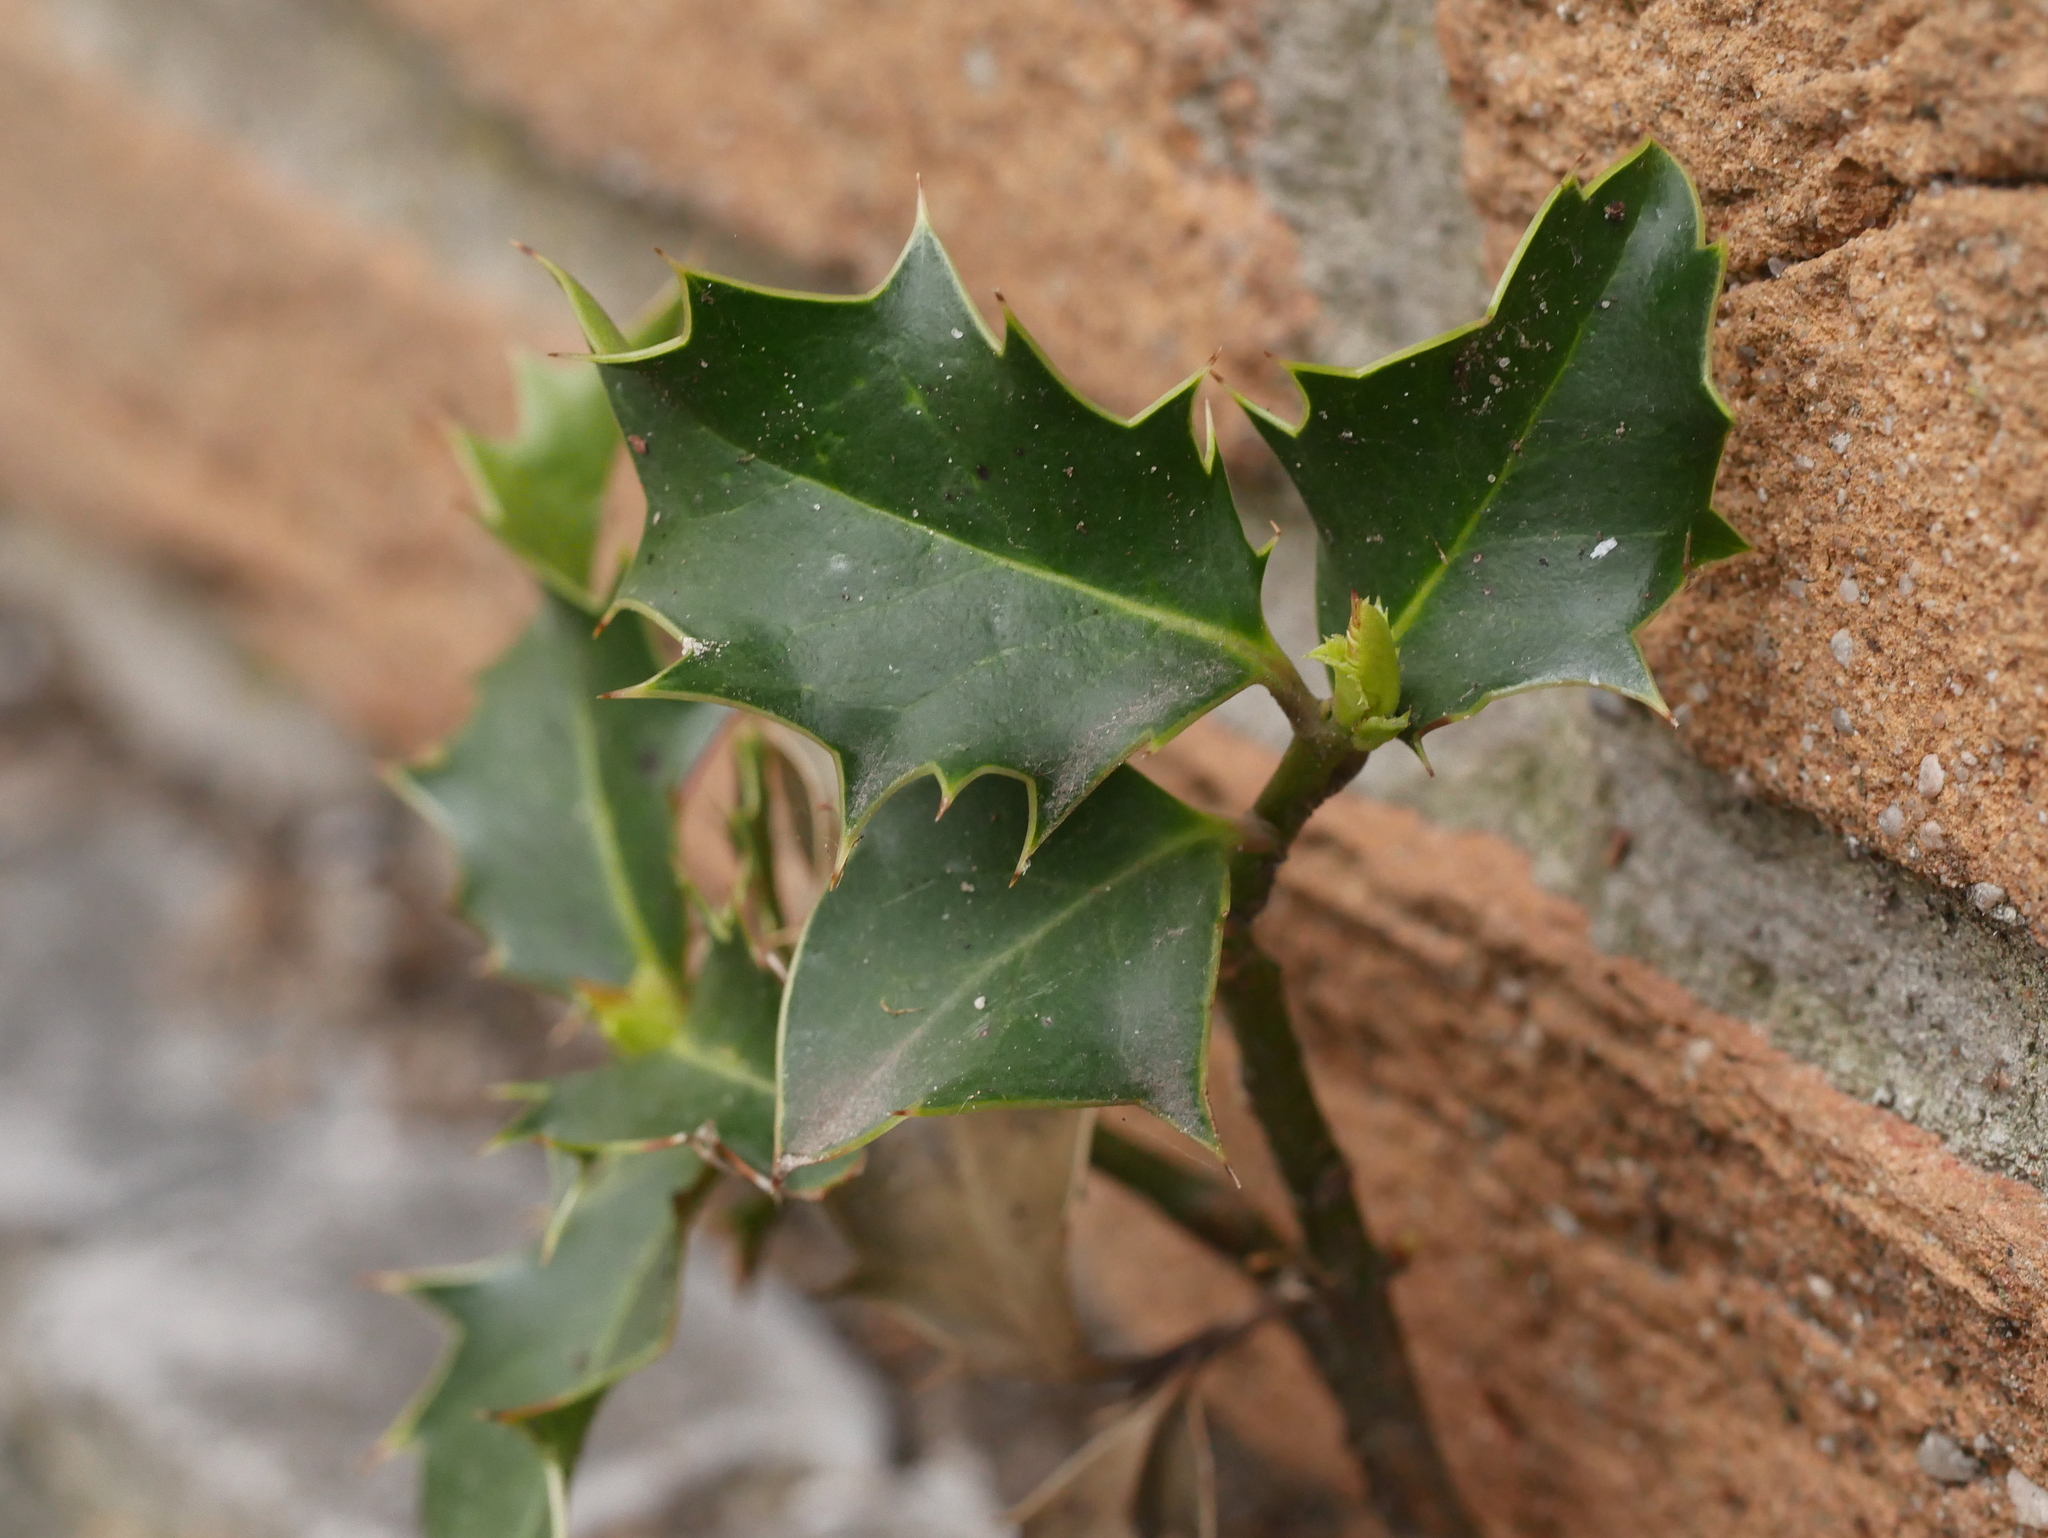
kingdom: Plantae
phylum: Tracheophyta
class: Magnoliopsida
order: Aquifoliales
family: Aquifoliaceae
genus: Ilex
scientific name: Ilex aquifolium
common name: English holly
